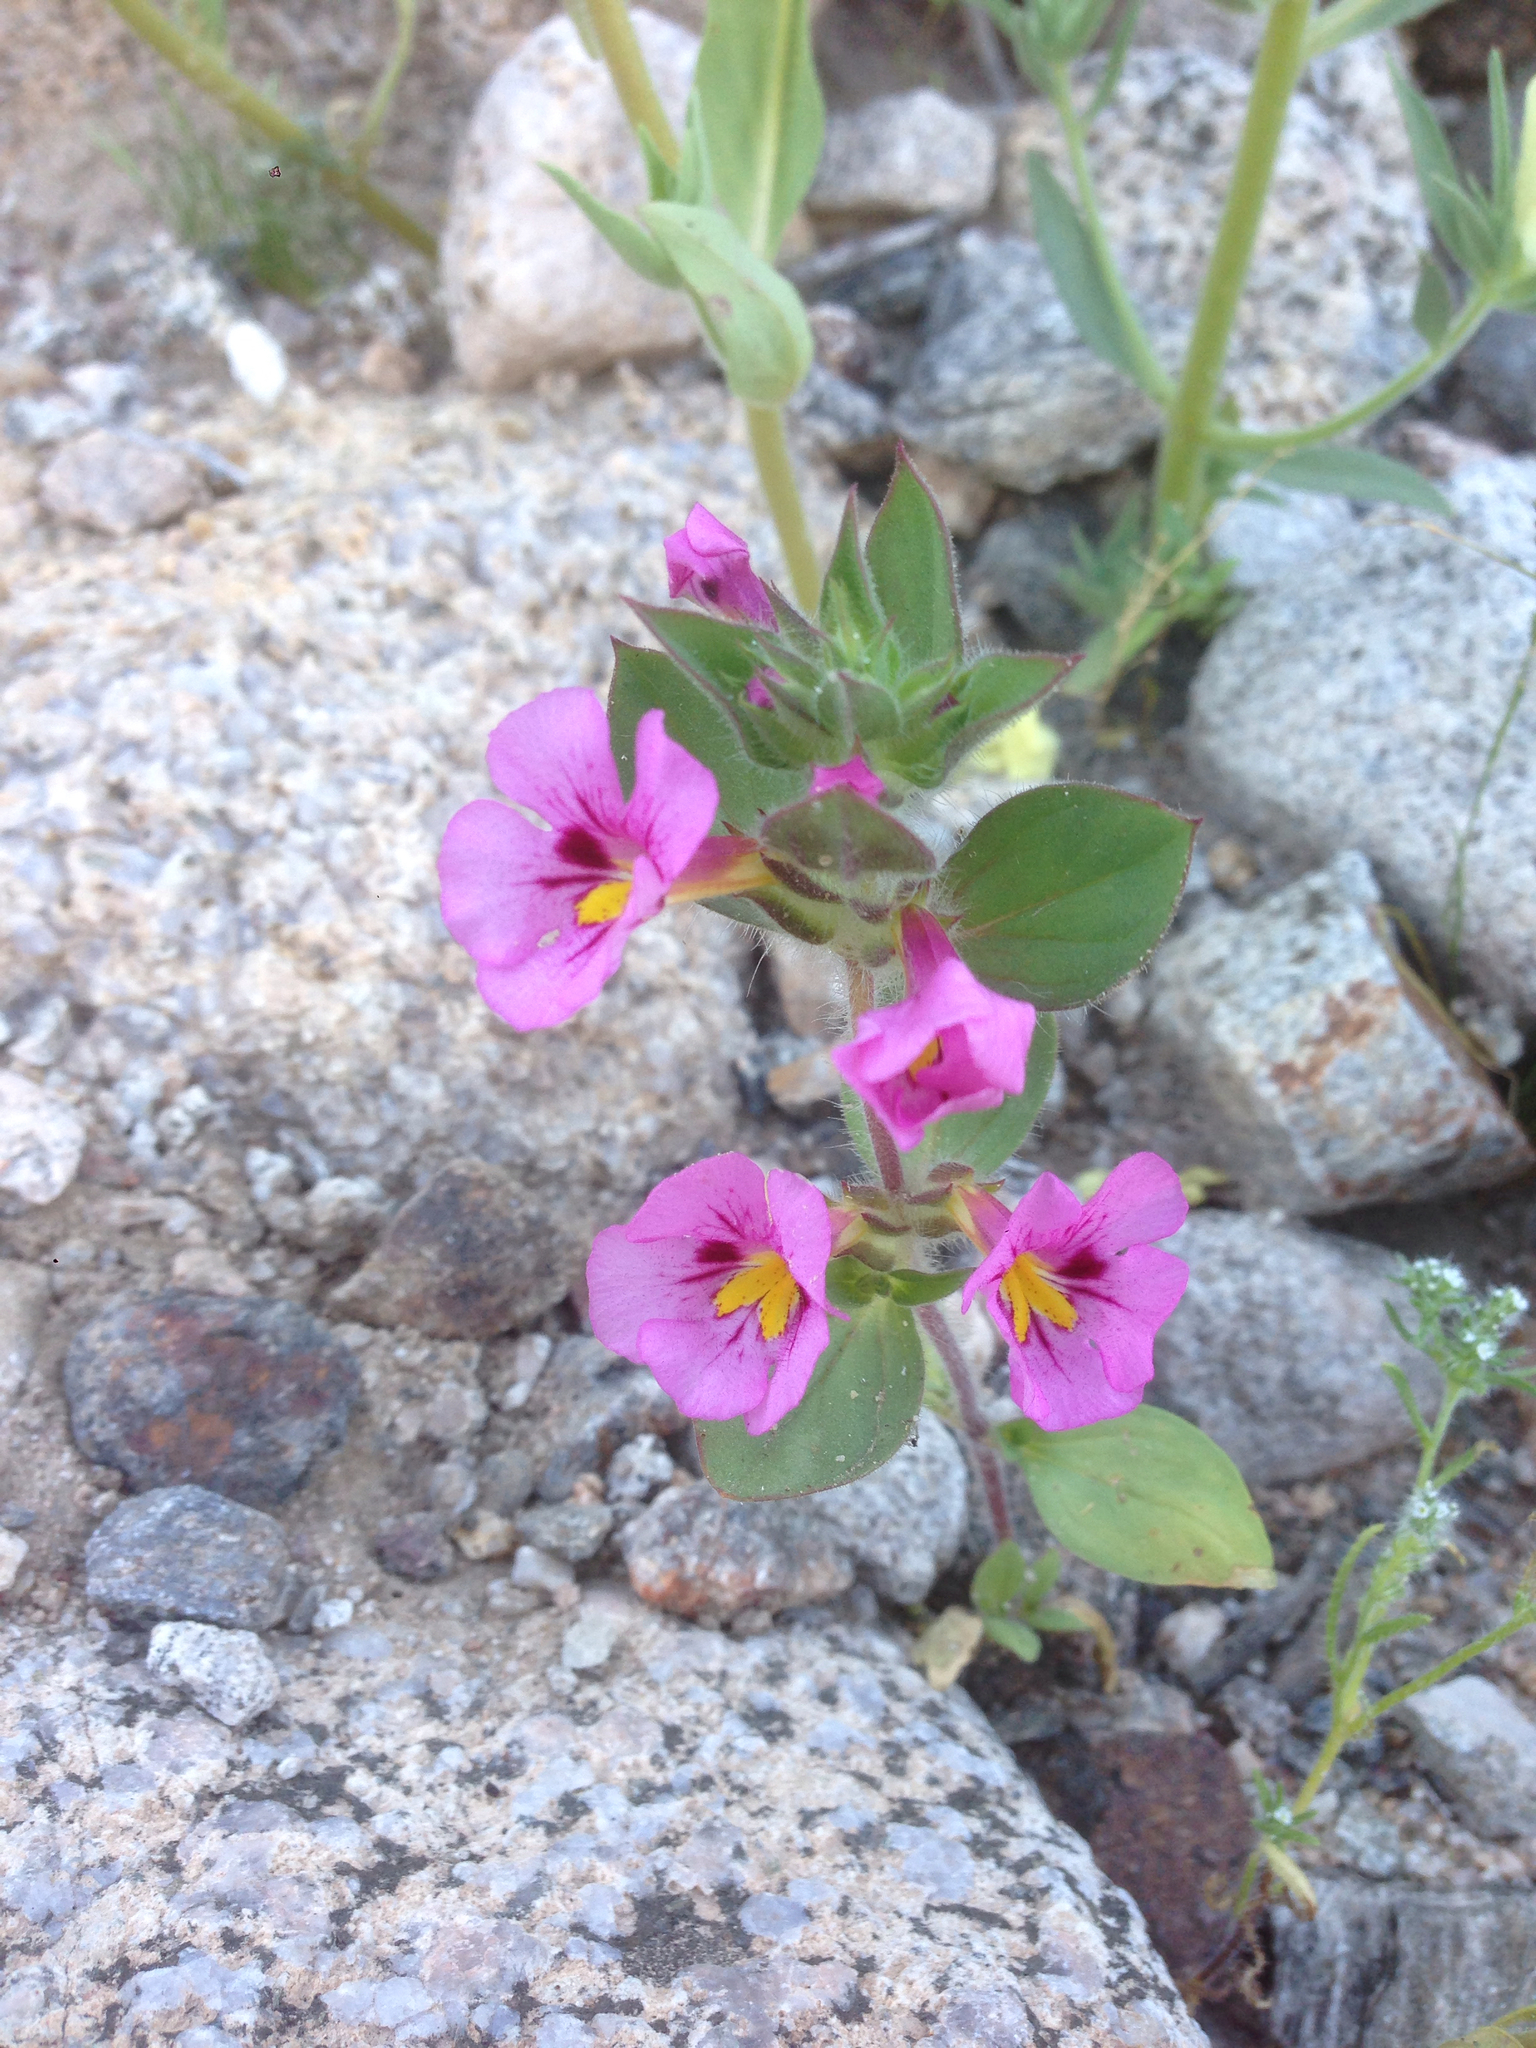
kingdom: Plantae
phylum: Tracheophyta
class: Magnoliopsida
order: Lamiales
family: Phrymaceae
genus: Diplacus
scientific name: Diplacus bigelovii
